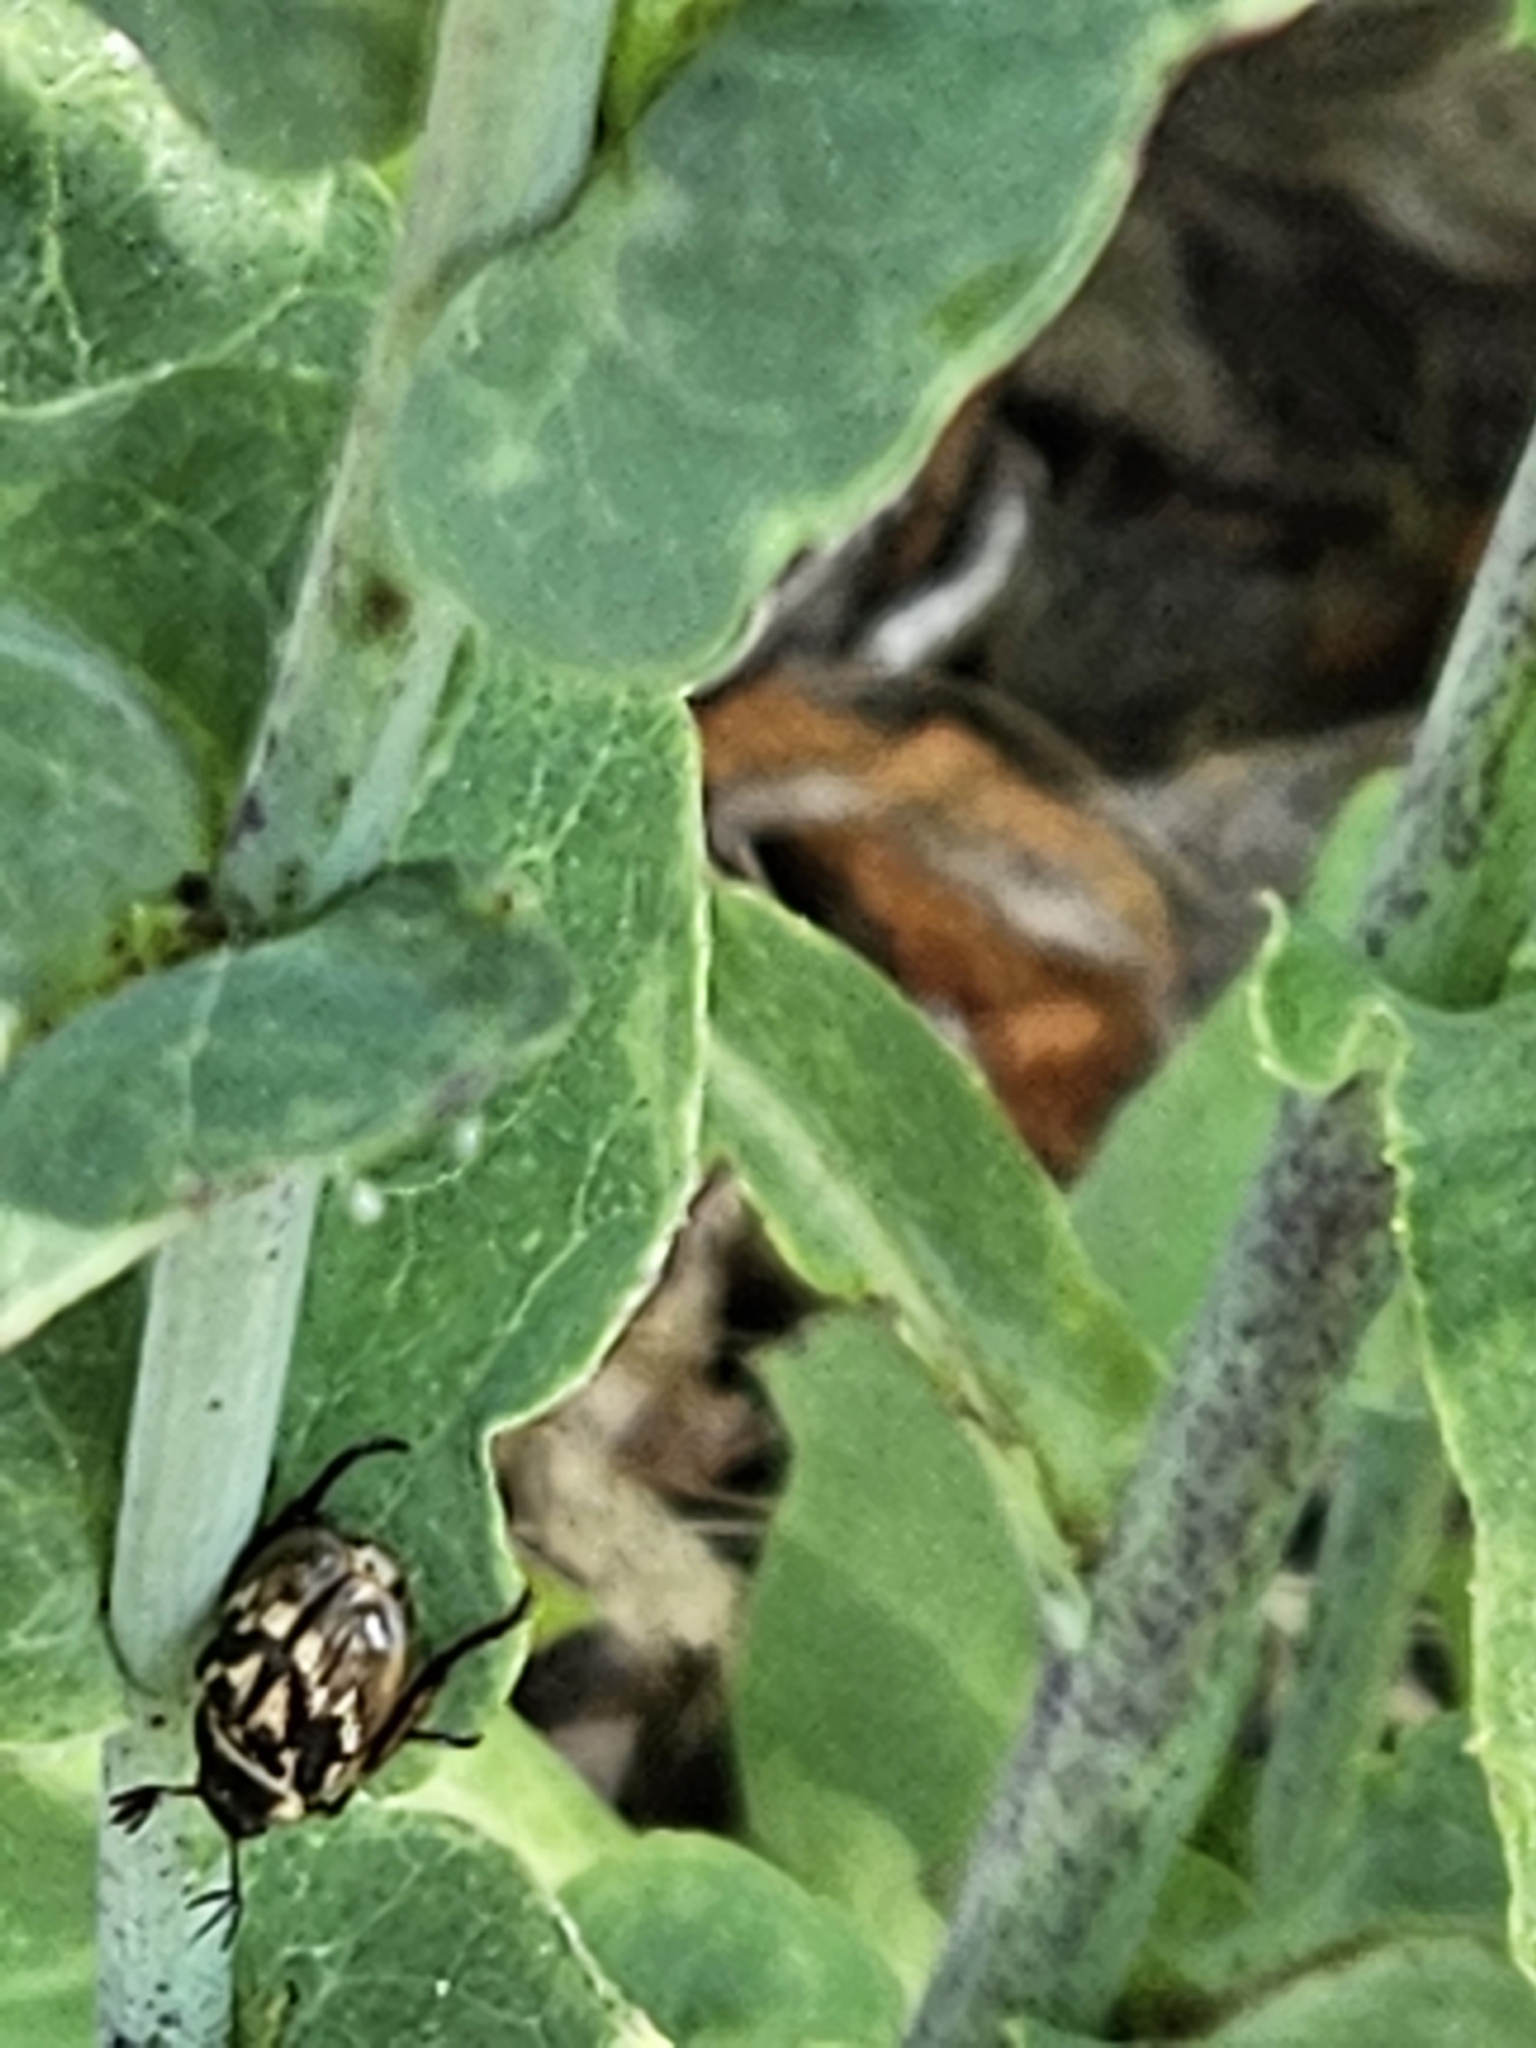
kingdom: Animalia
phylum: Arthropoda
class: Insecta
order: Coleoptera
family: Scarabaeidae
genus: Exomala
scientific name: Exomala orientalis
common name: Oriental beetle
